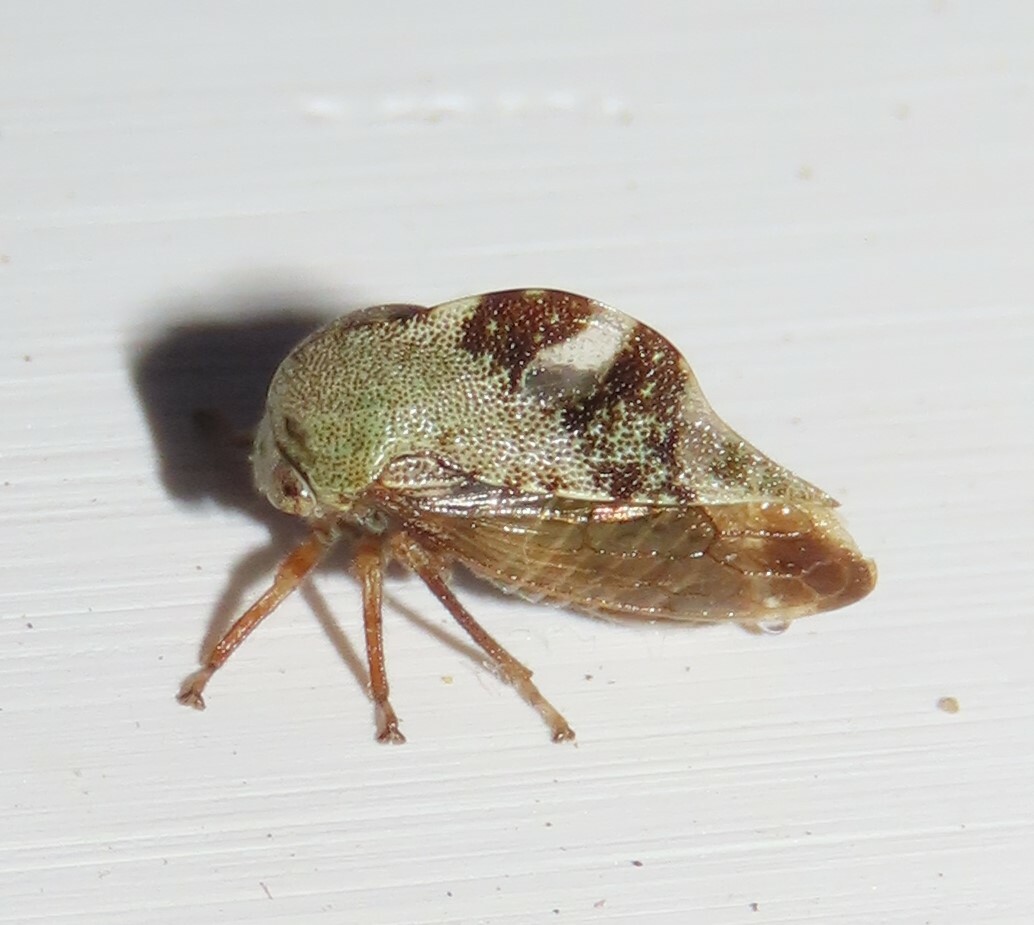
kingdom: Animalia
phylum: Arthropoda
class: Insecta
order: Hemiptera
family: Membracidae
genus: Cyrtolobus
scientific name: Cyrtolobus tuberosa
